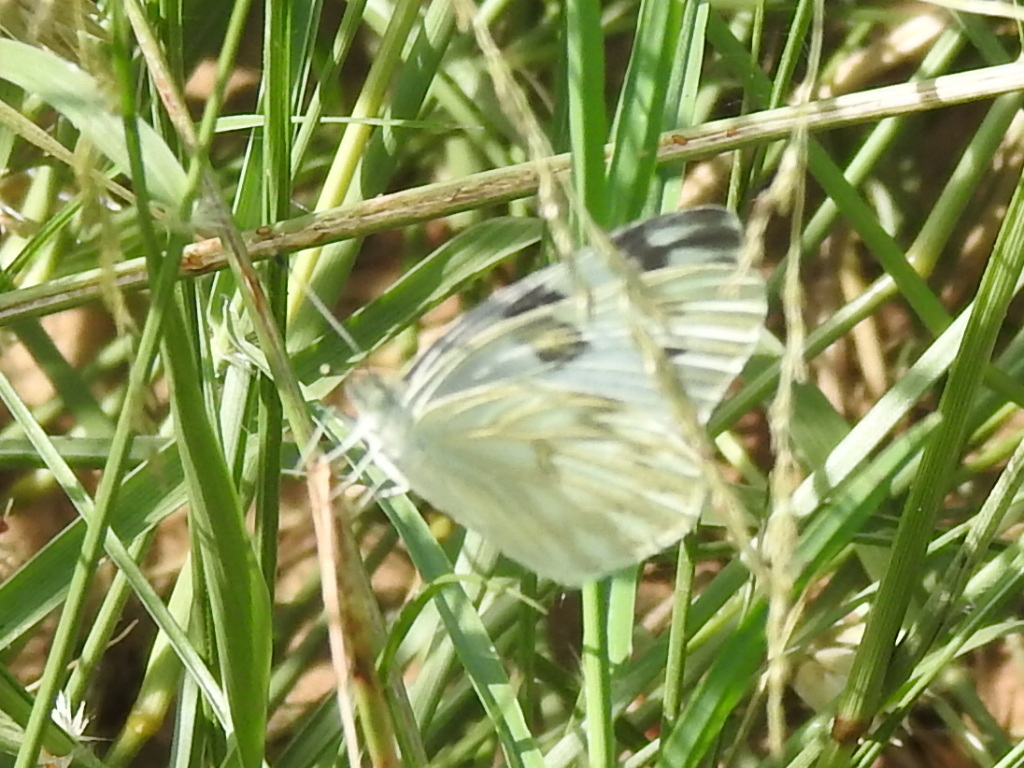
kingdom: Animalia
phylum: Arthropoda
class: Insecta
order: Lepidoptera
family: Pieridae
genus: Pontia
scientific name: Pontia protodice
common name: Checkered white
